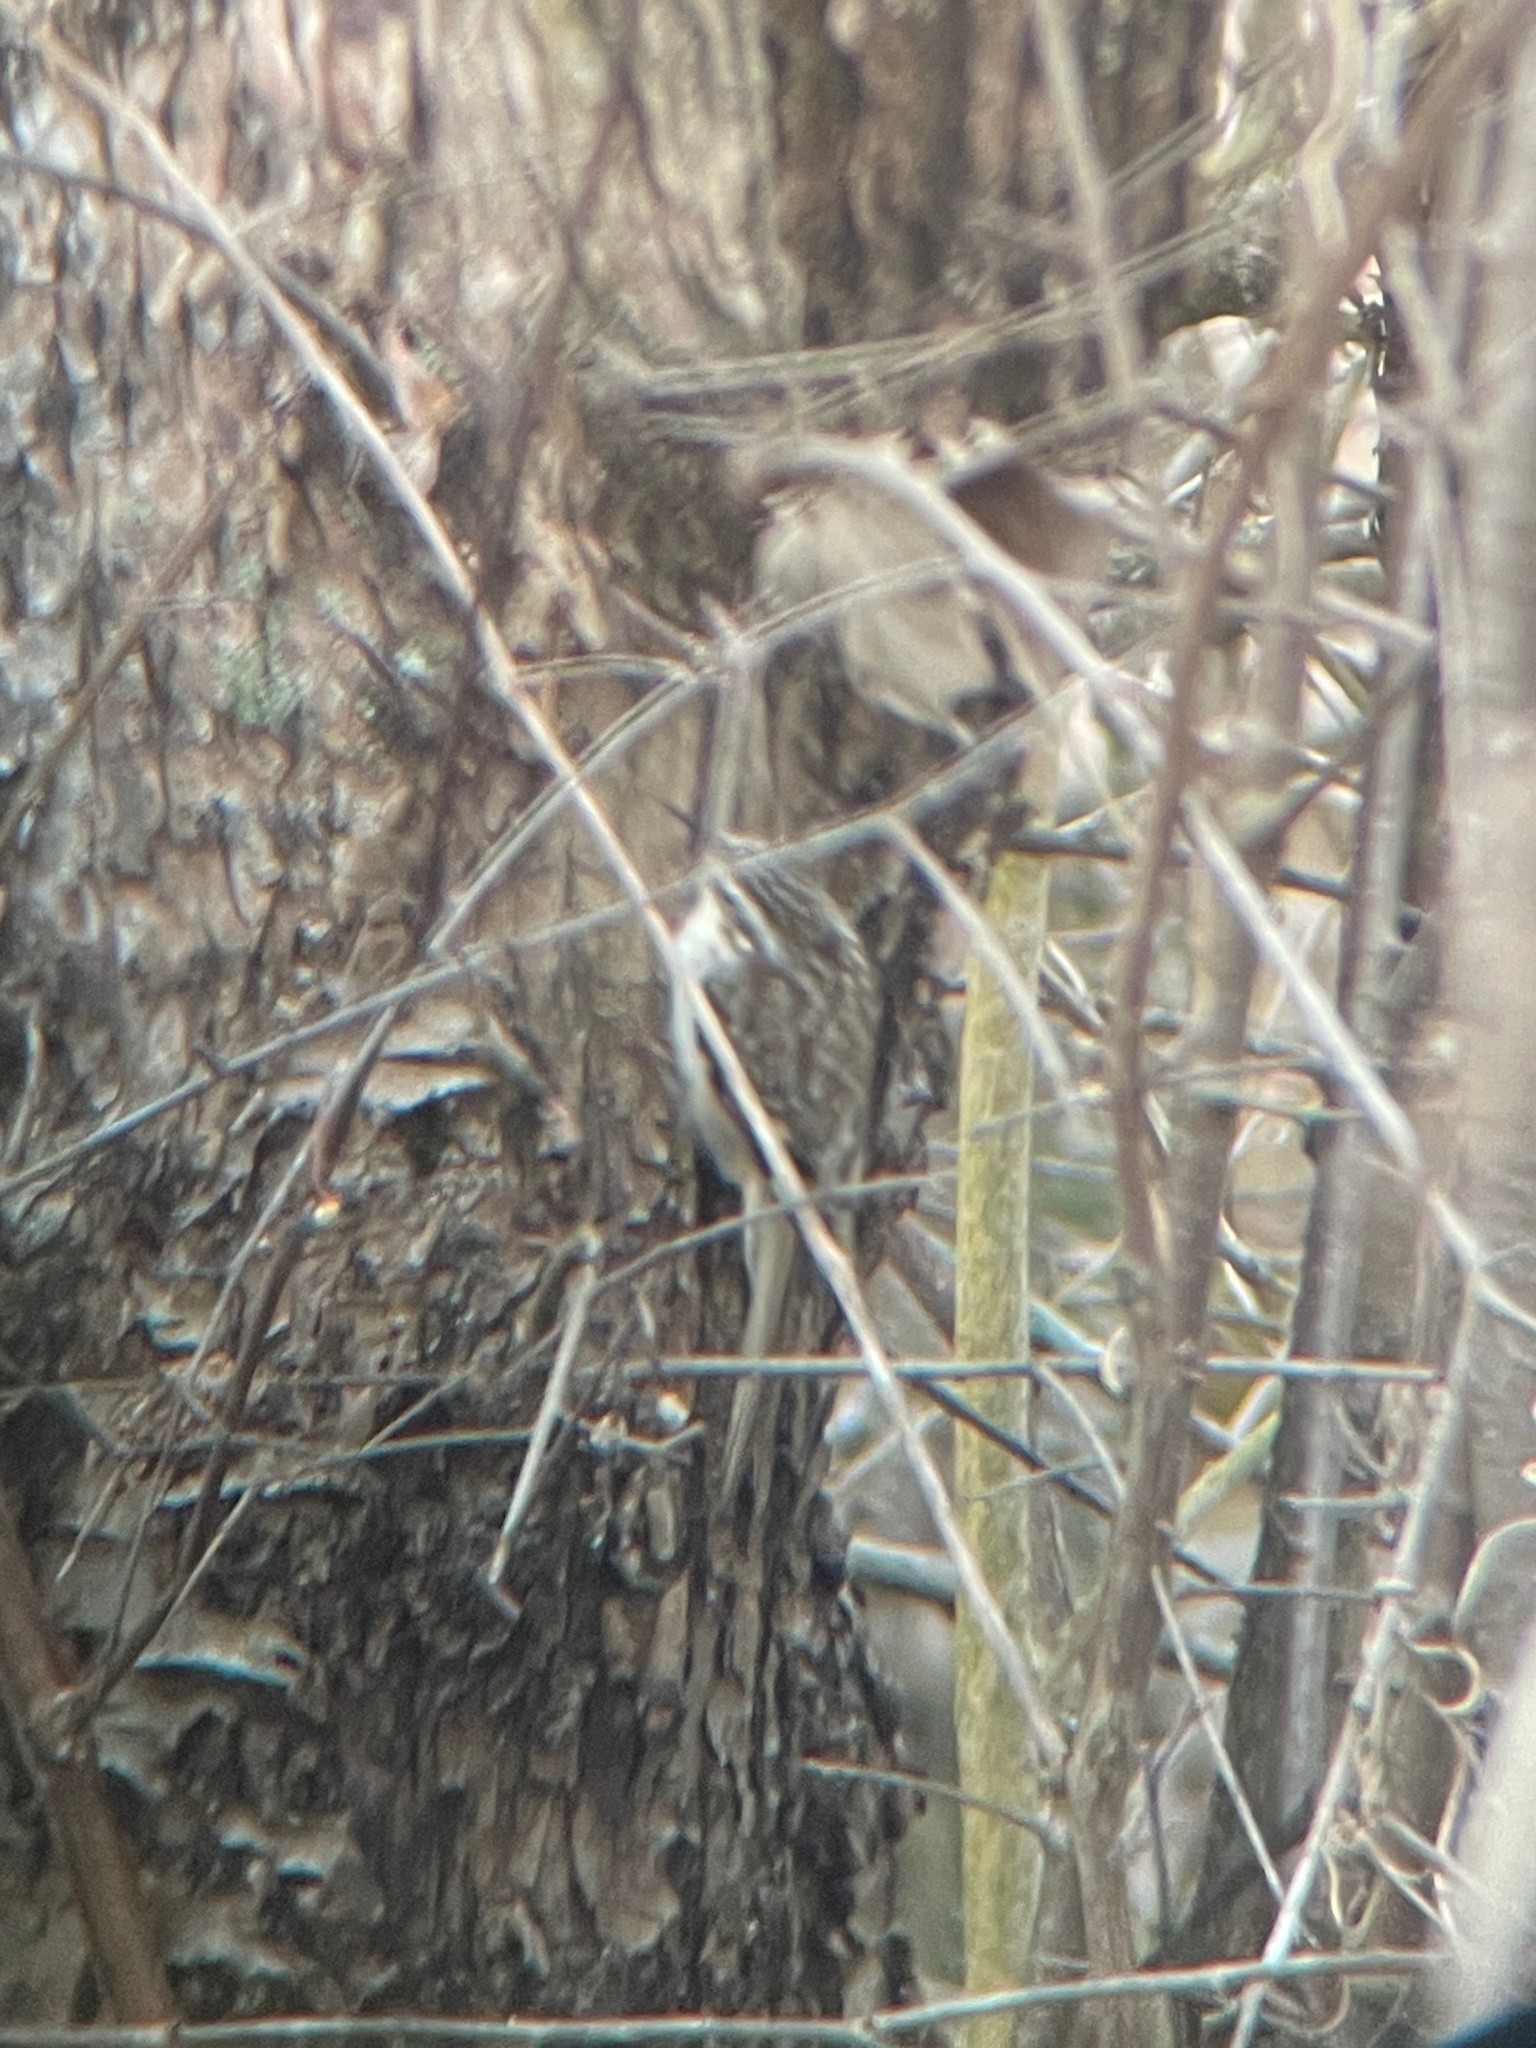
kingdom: Animalia
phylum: Chordata
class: Aves
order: Passeriformes
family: Certhiidae
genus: Certhia
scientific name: Certhia americana
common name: Brown creeper
